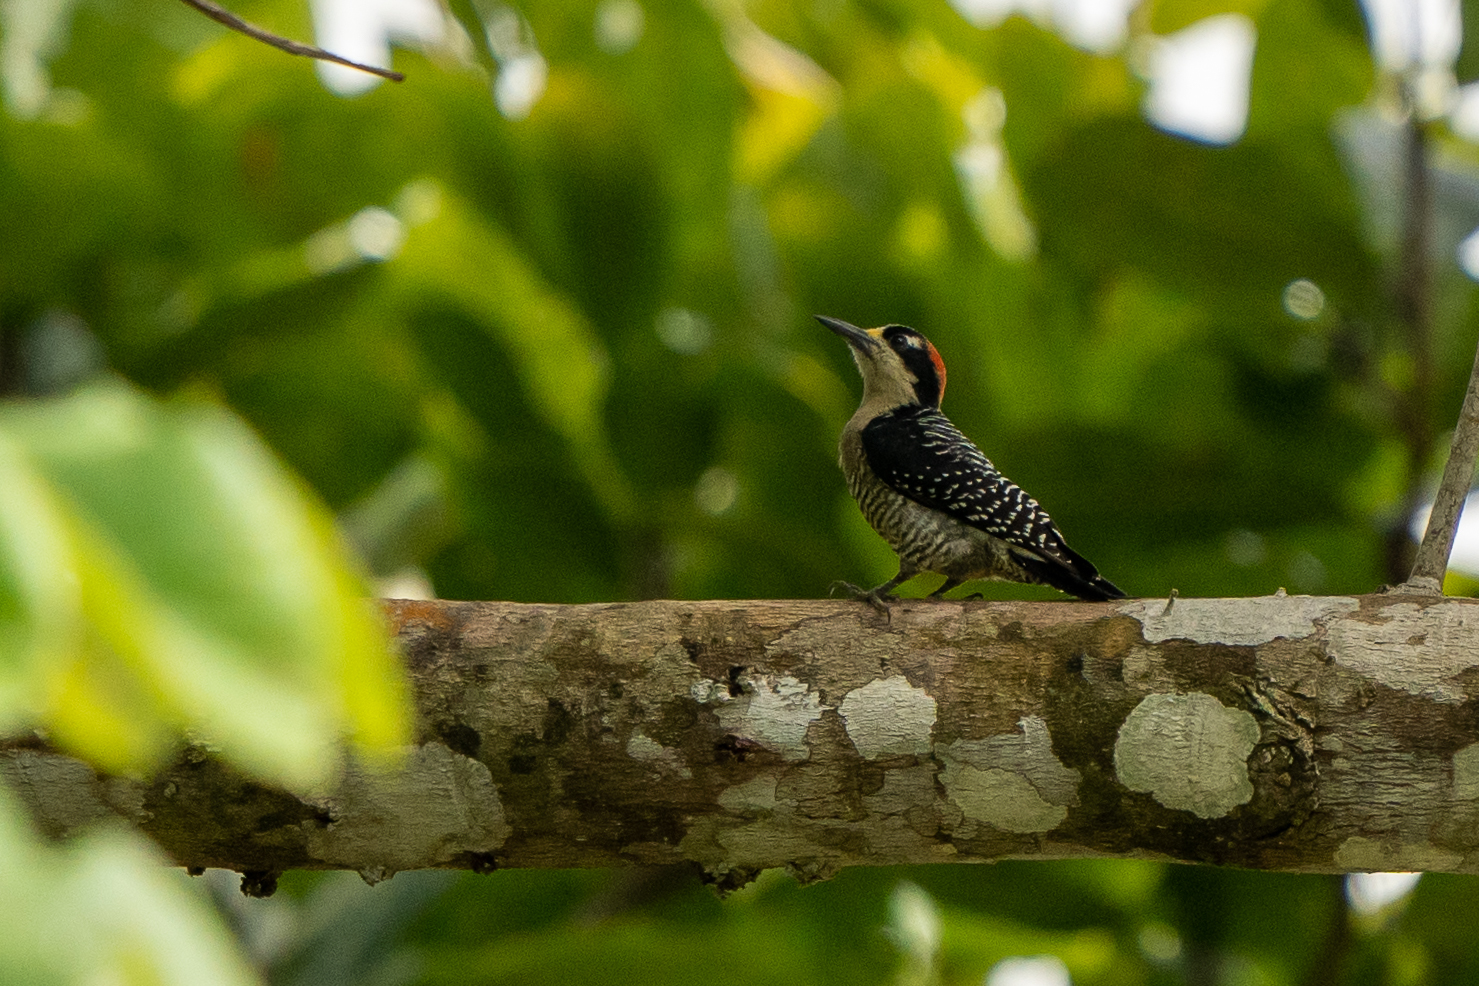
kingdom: Animalia
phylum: Chordata
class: Aves
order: Piciformes
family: Picidae
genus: Melanerpes
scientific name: Melanerpes pucherani
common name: Black-cheeked woodpecker
